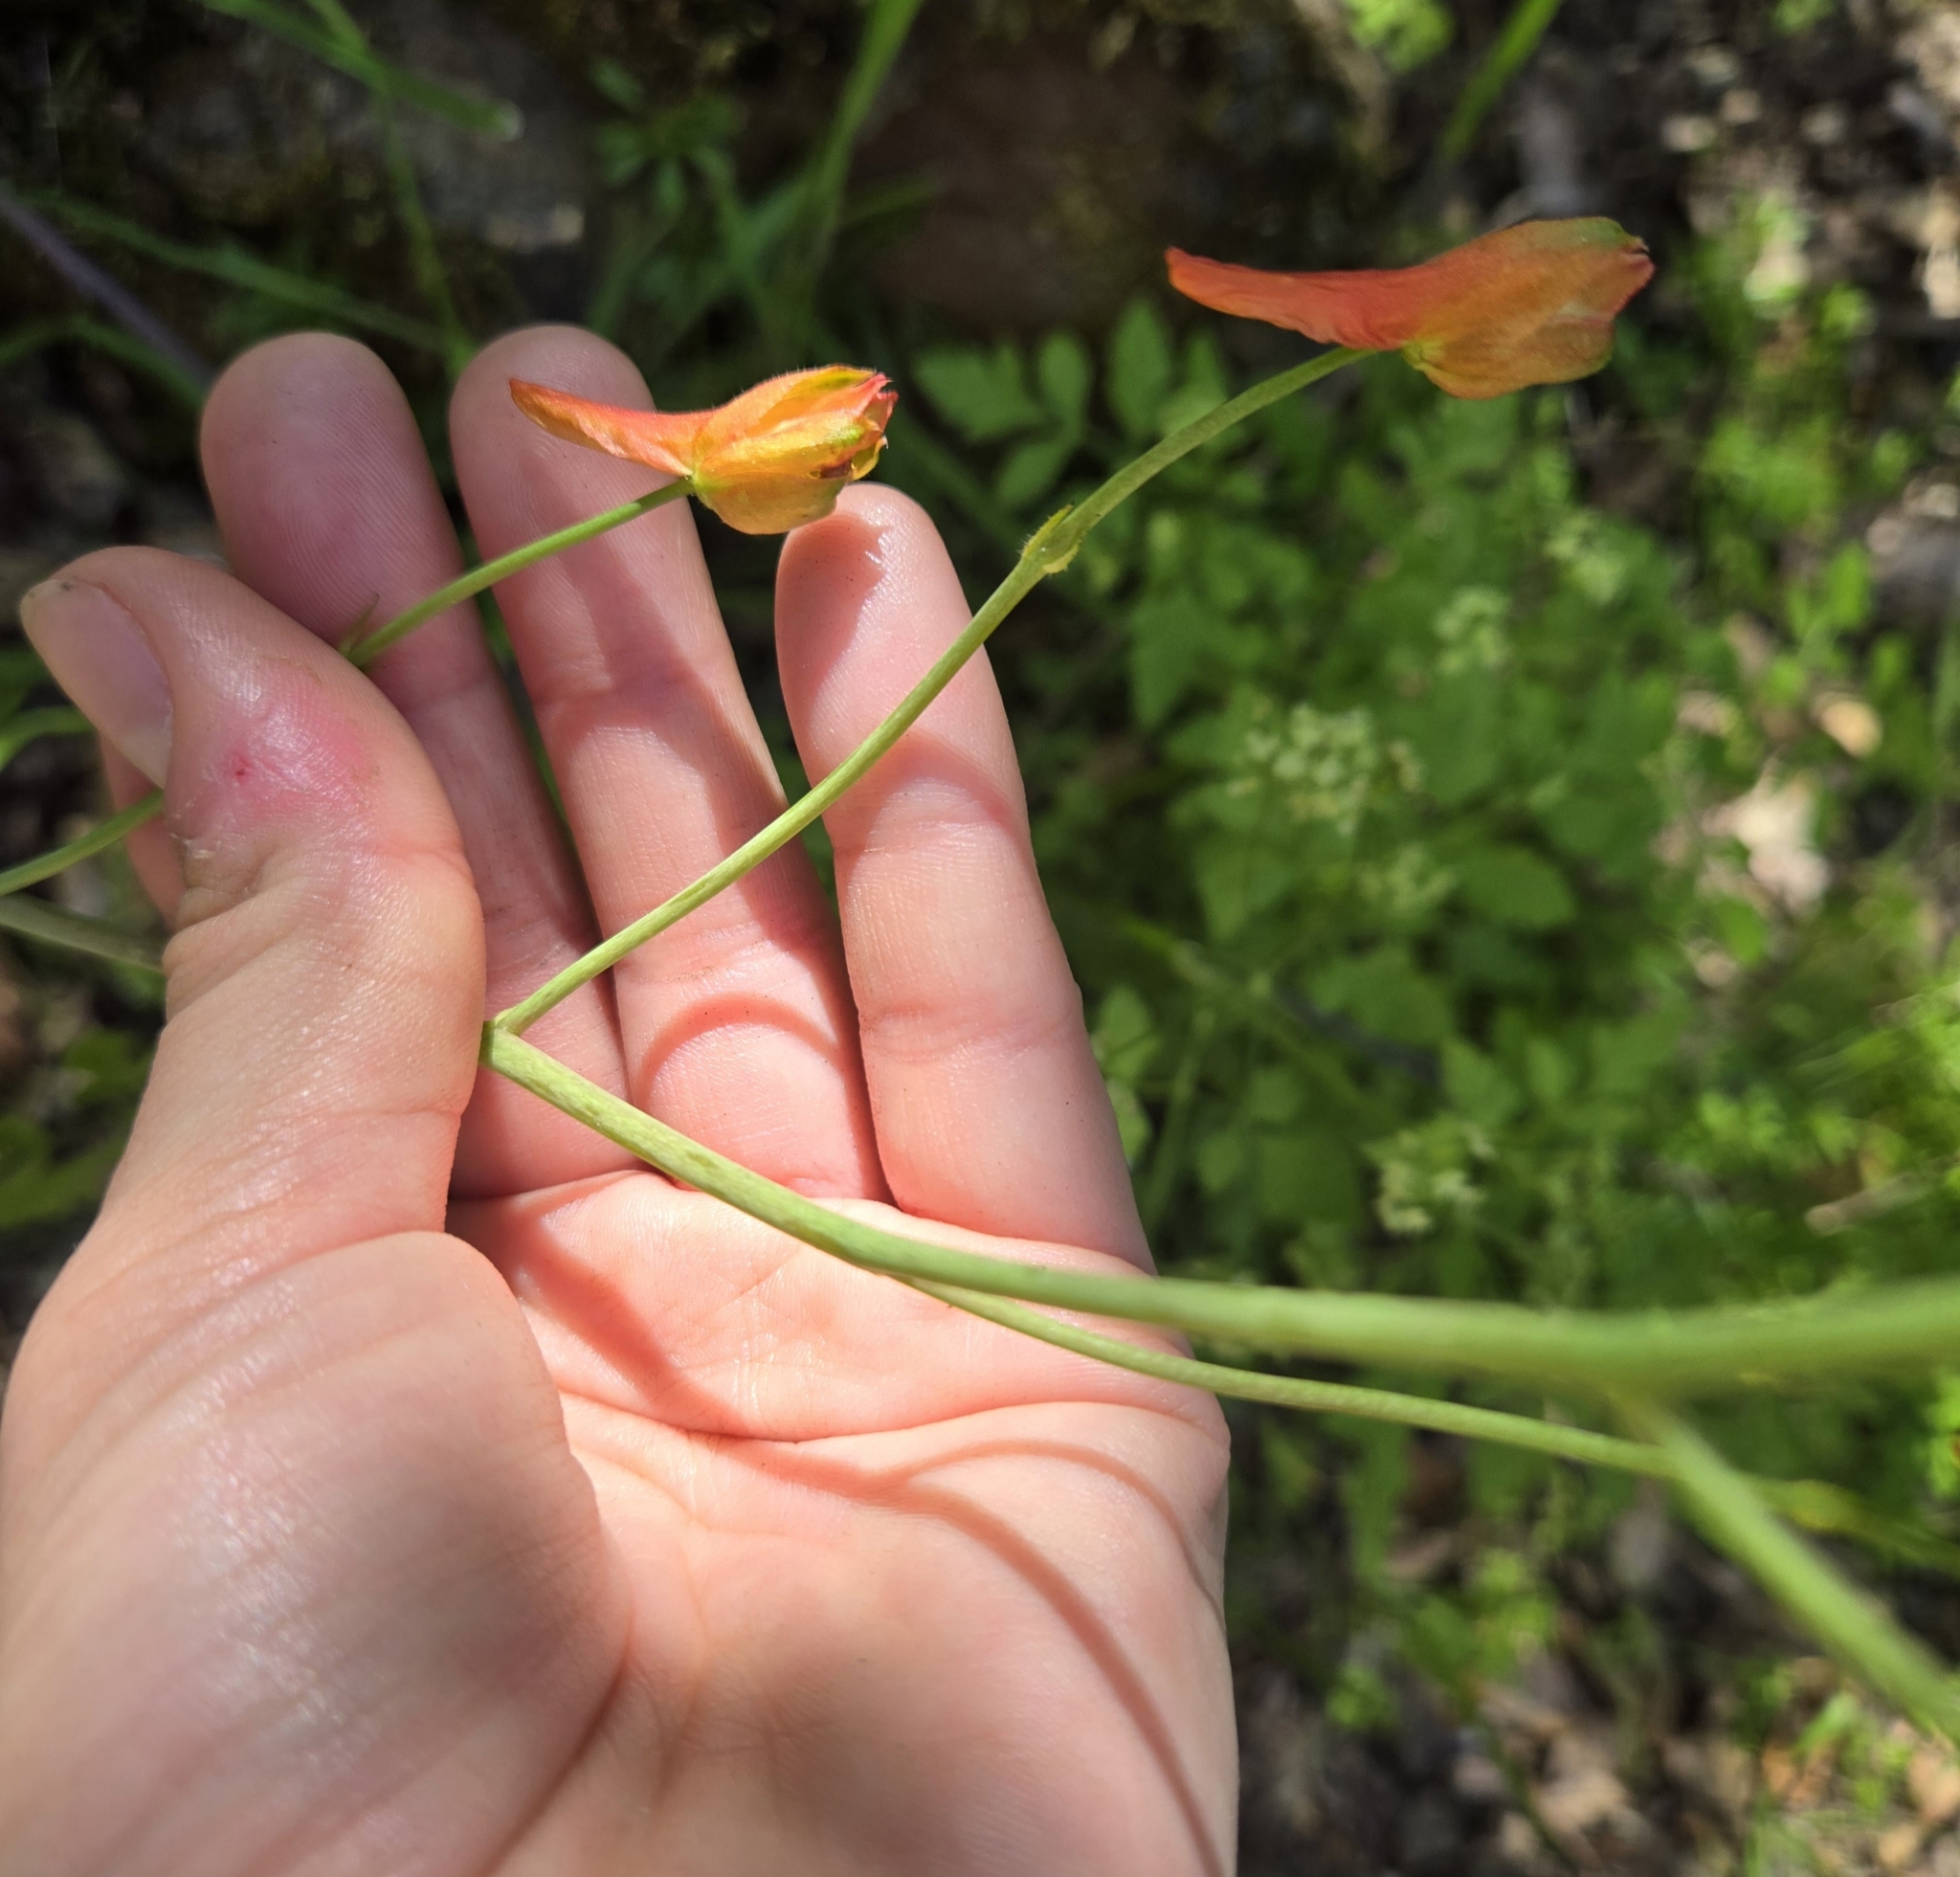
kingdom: Plantae
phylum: Tracheophyta
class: Magnoliopsida
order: Ranunculales
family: Ranunculaceae
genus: Delphinium
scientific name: Delphinium nudicaule
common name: Red larkspur
